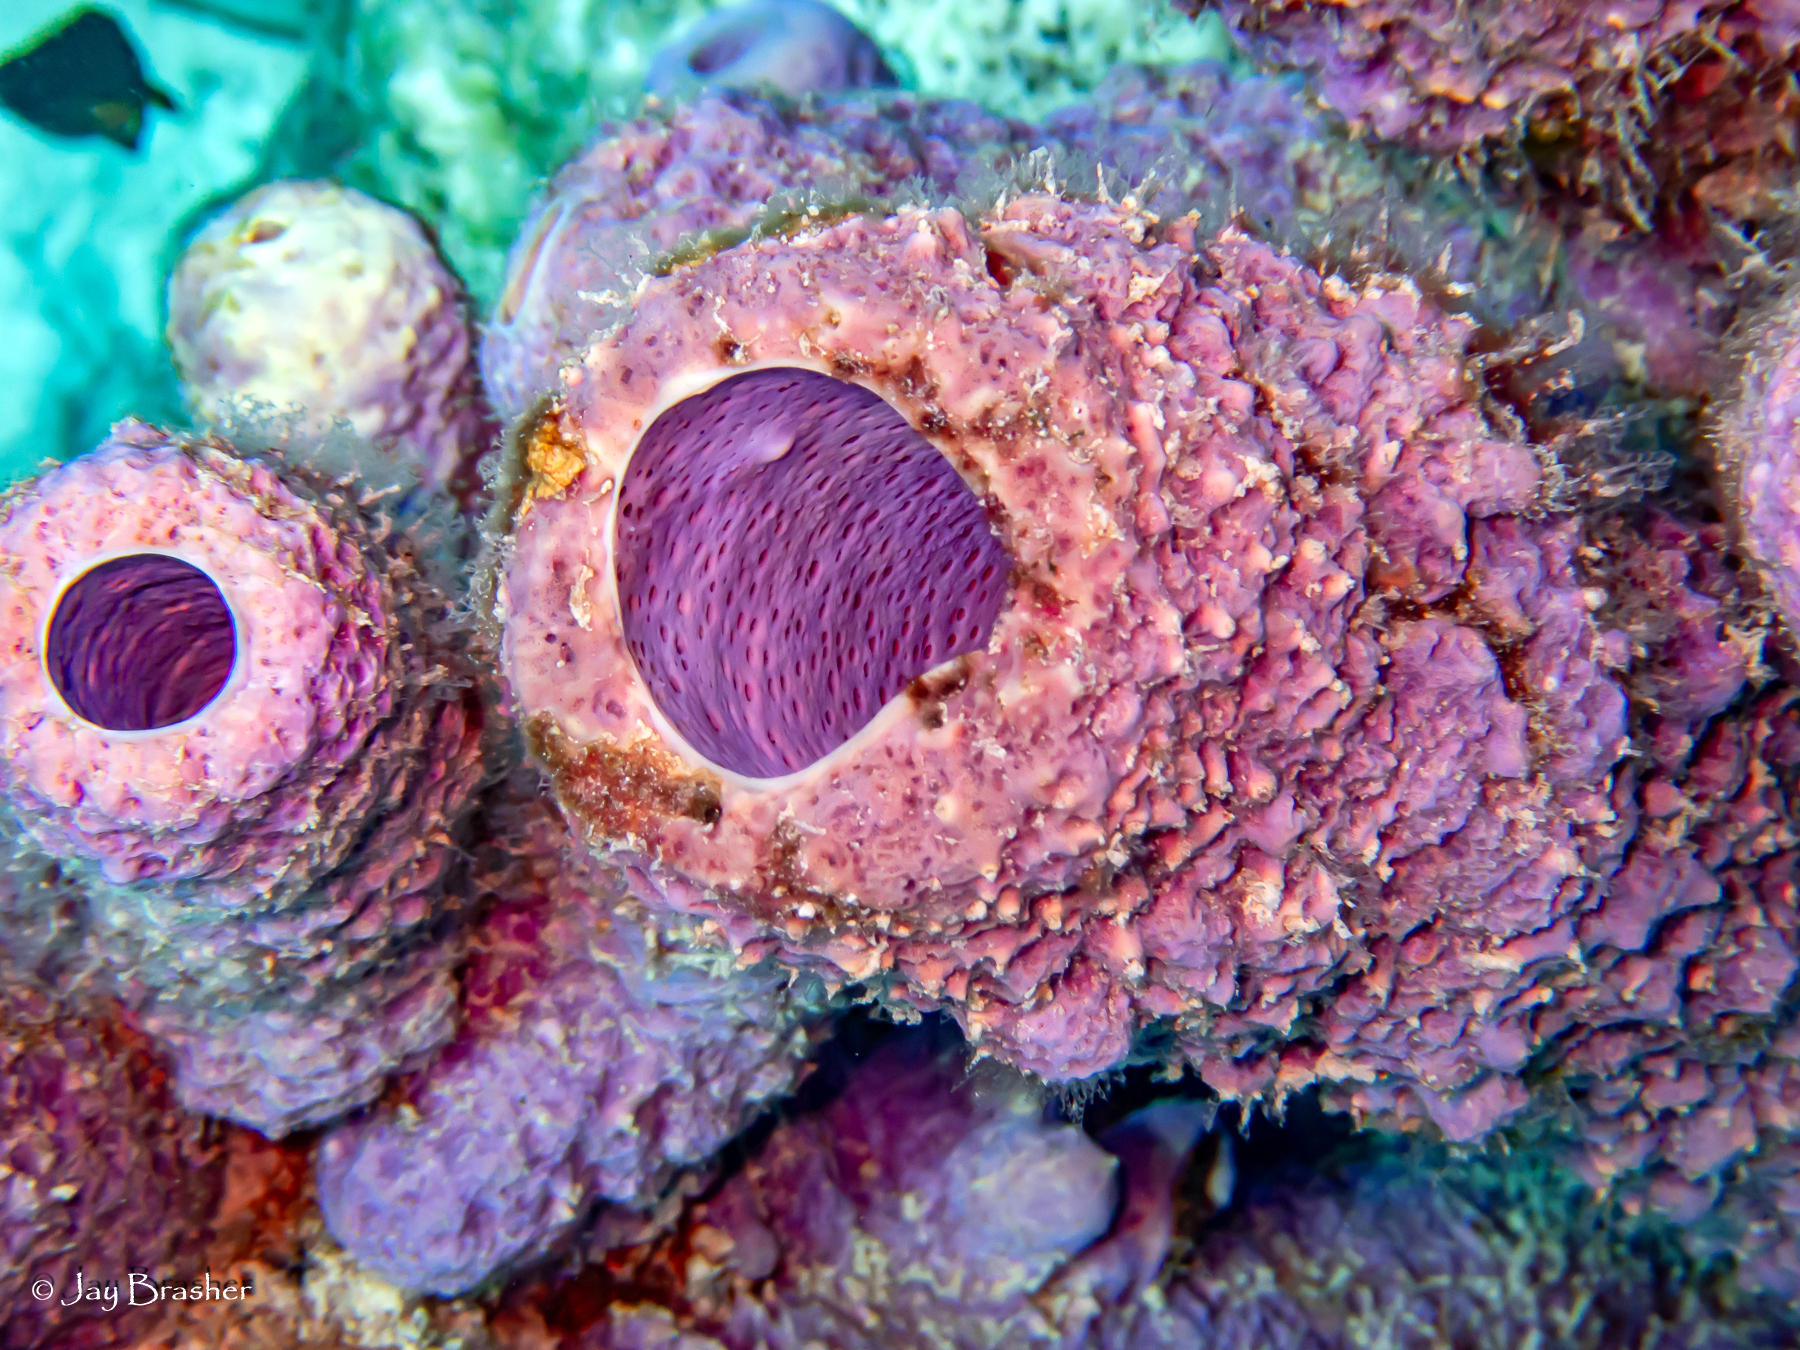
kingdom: Animalia
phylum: Porifera
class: Demospongiae
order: Verongiida
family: Aplysinidae
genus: Aplysina
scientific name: Aplysina archeri
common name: Stove-pipe sponge
